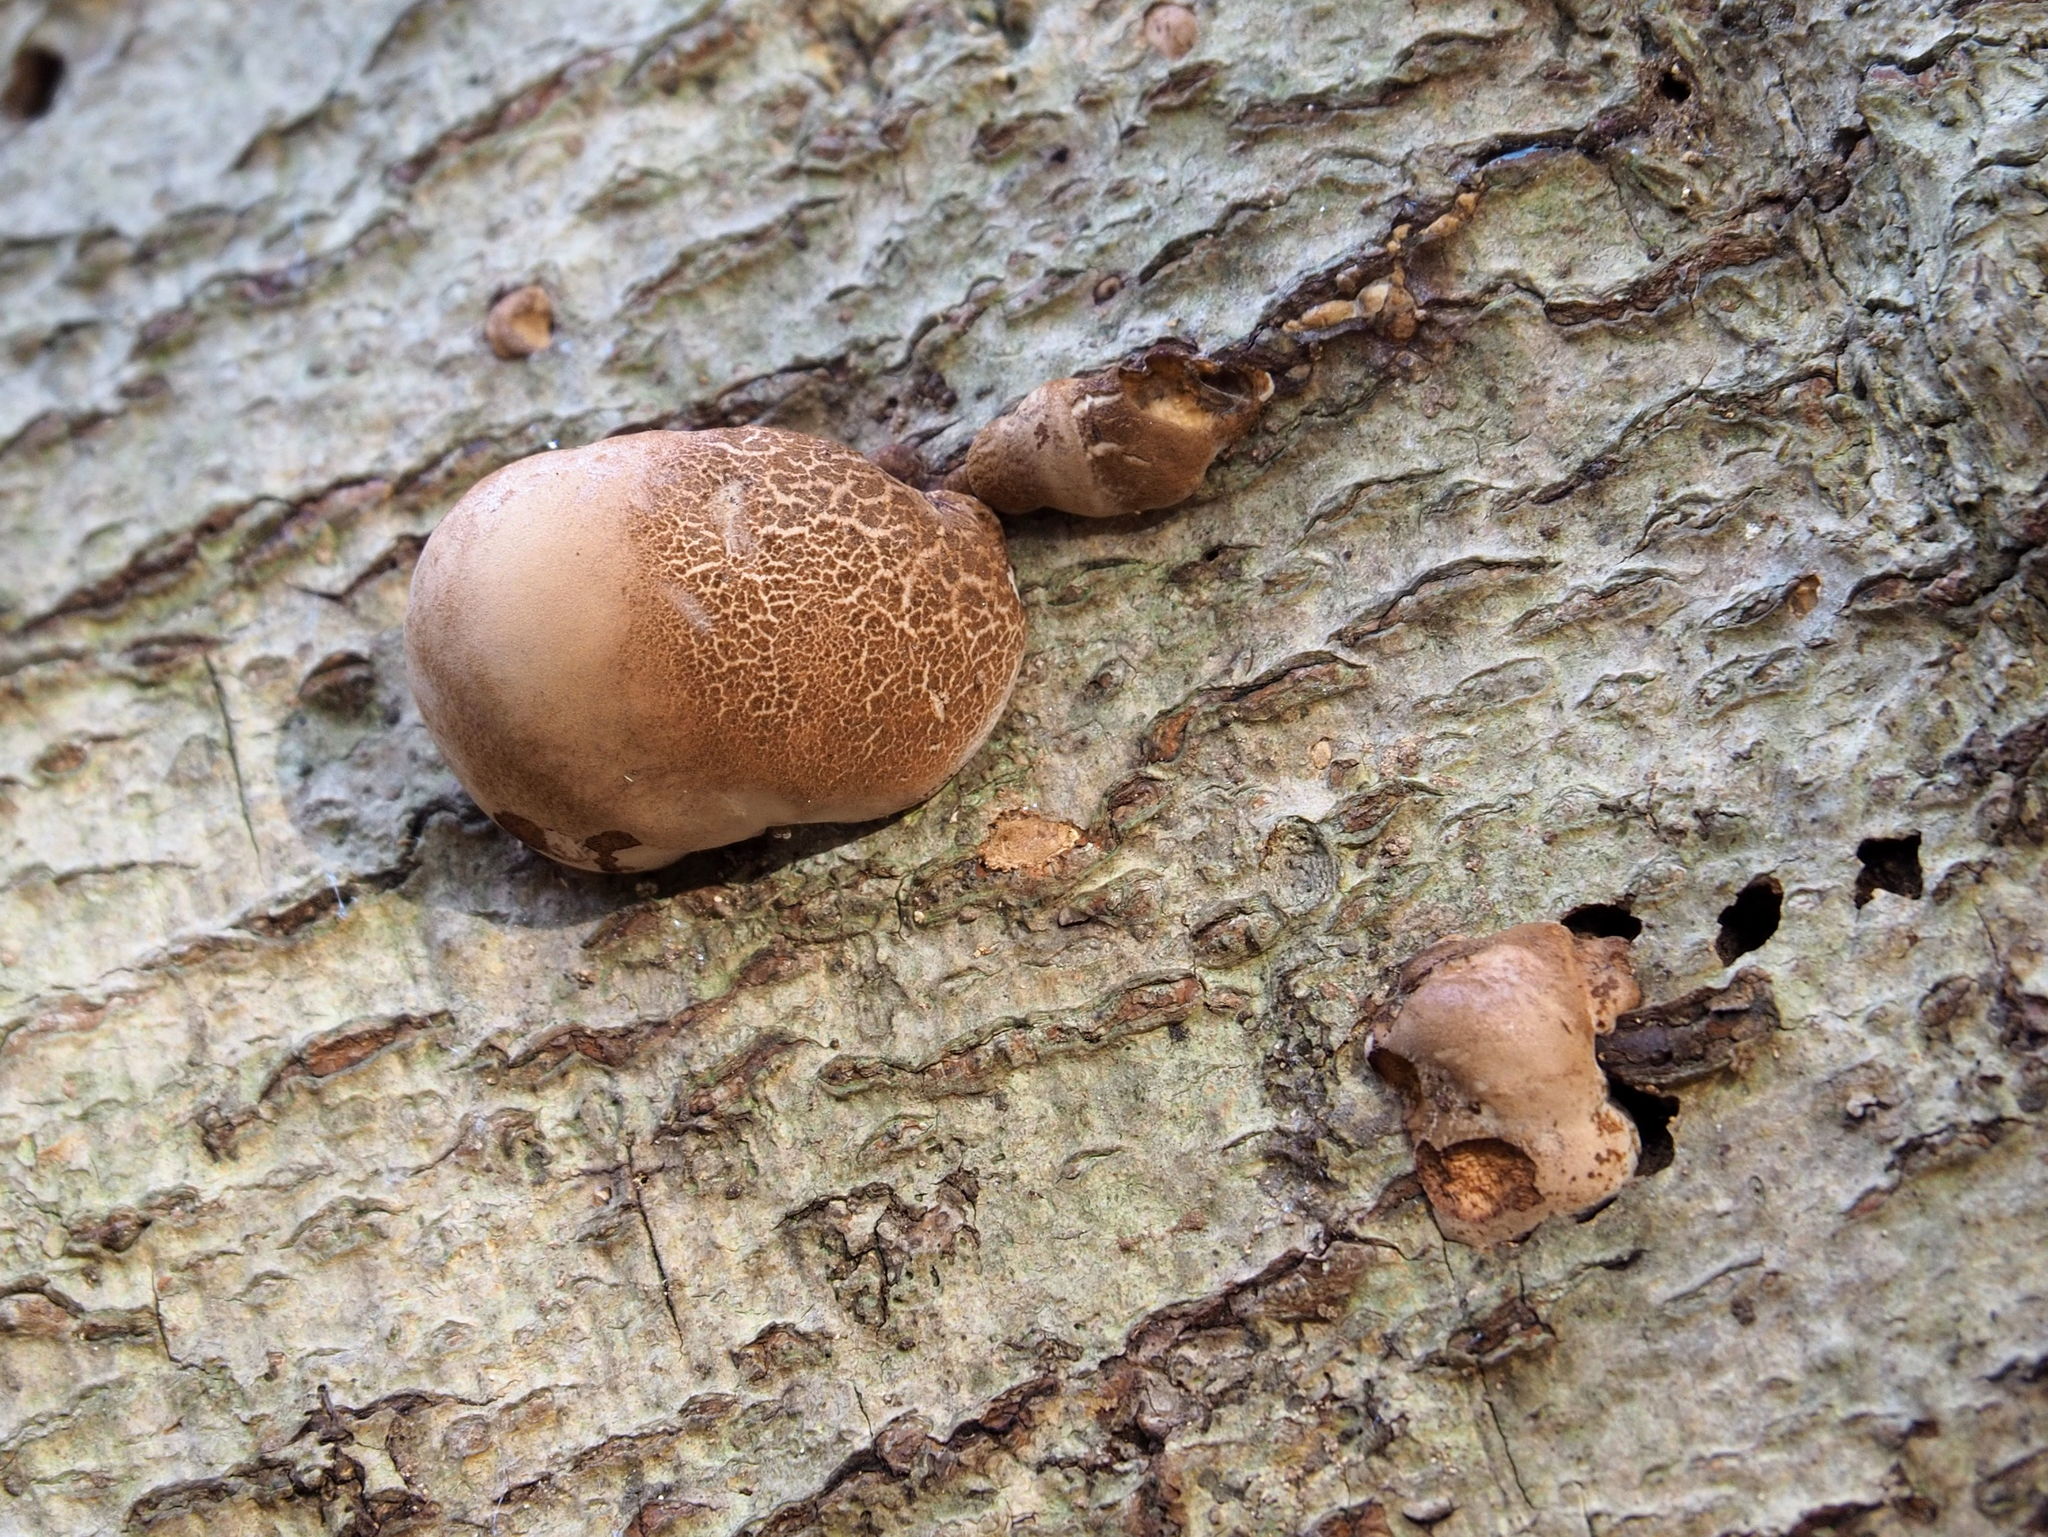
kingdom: Fungi
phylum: Basidiomycota
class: Agaricomycetes
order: Polyporales
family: Fomitopsidaceae
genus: Fomitopsis
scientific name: Fomitopsis betulina
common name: Birch polypore
